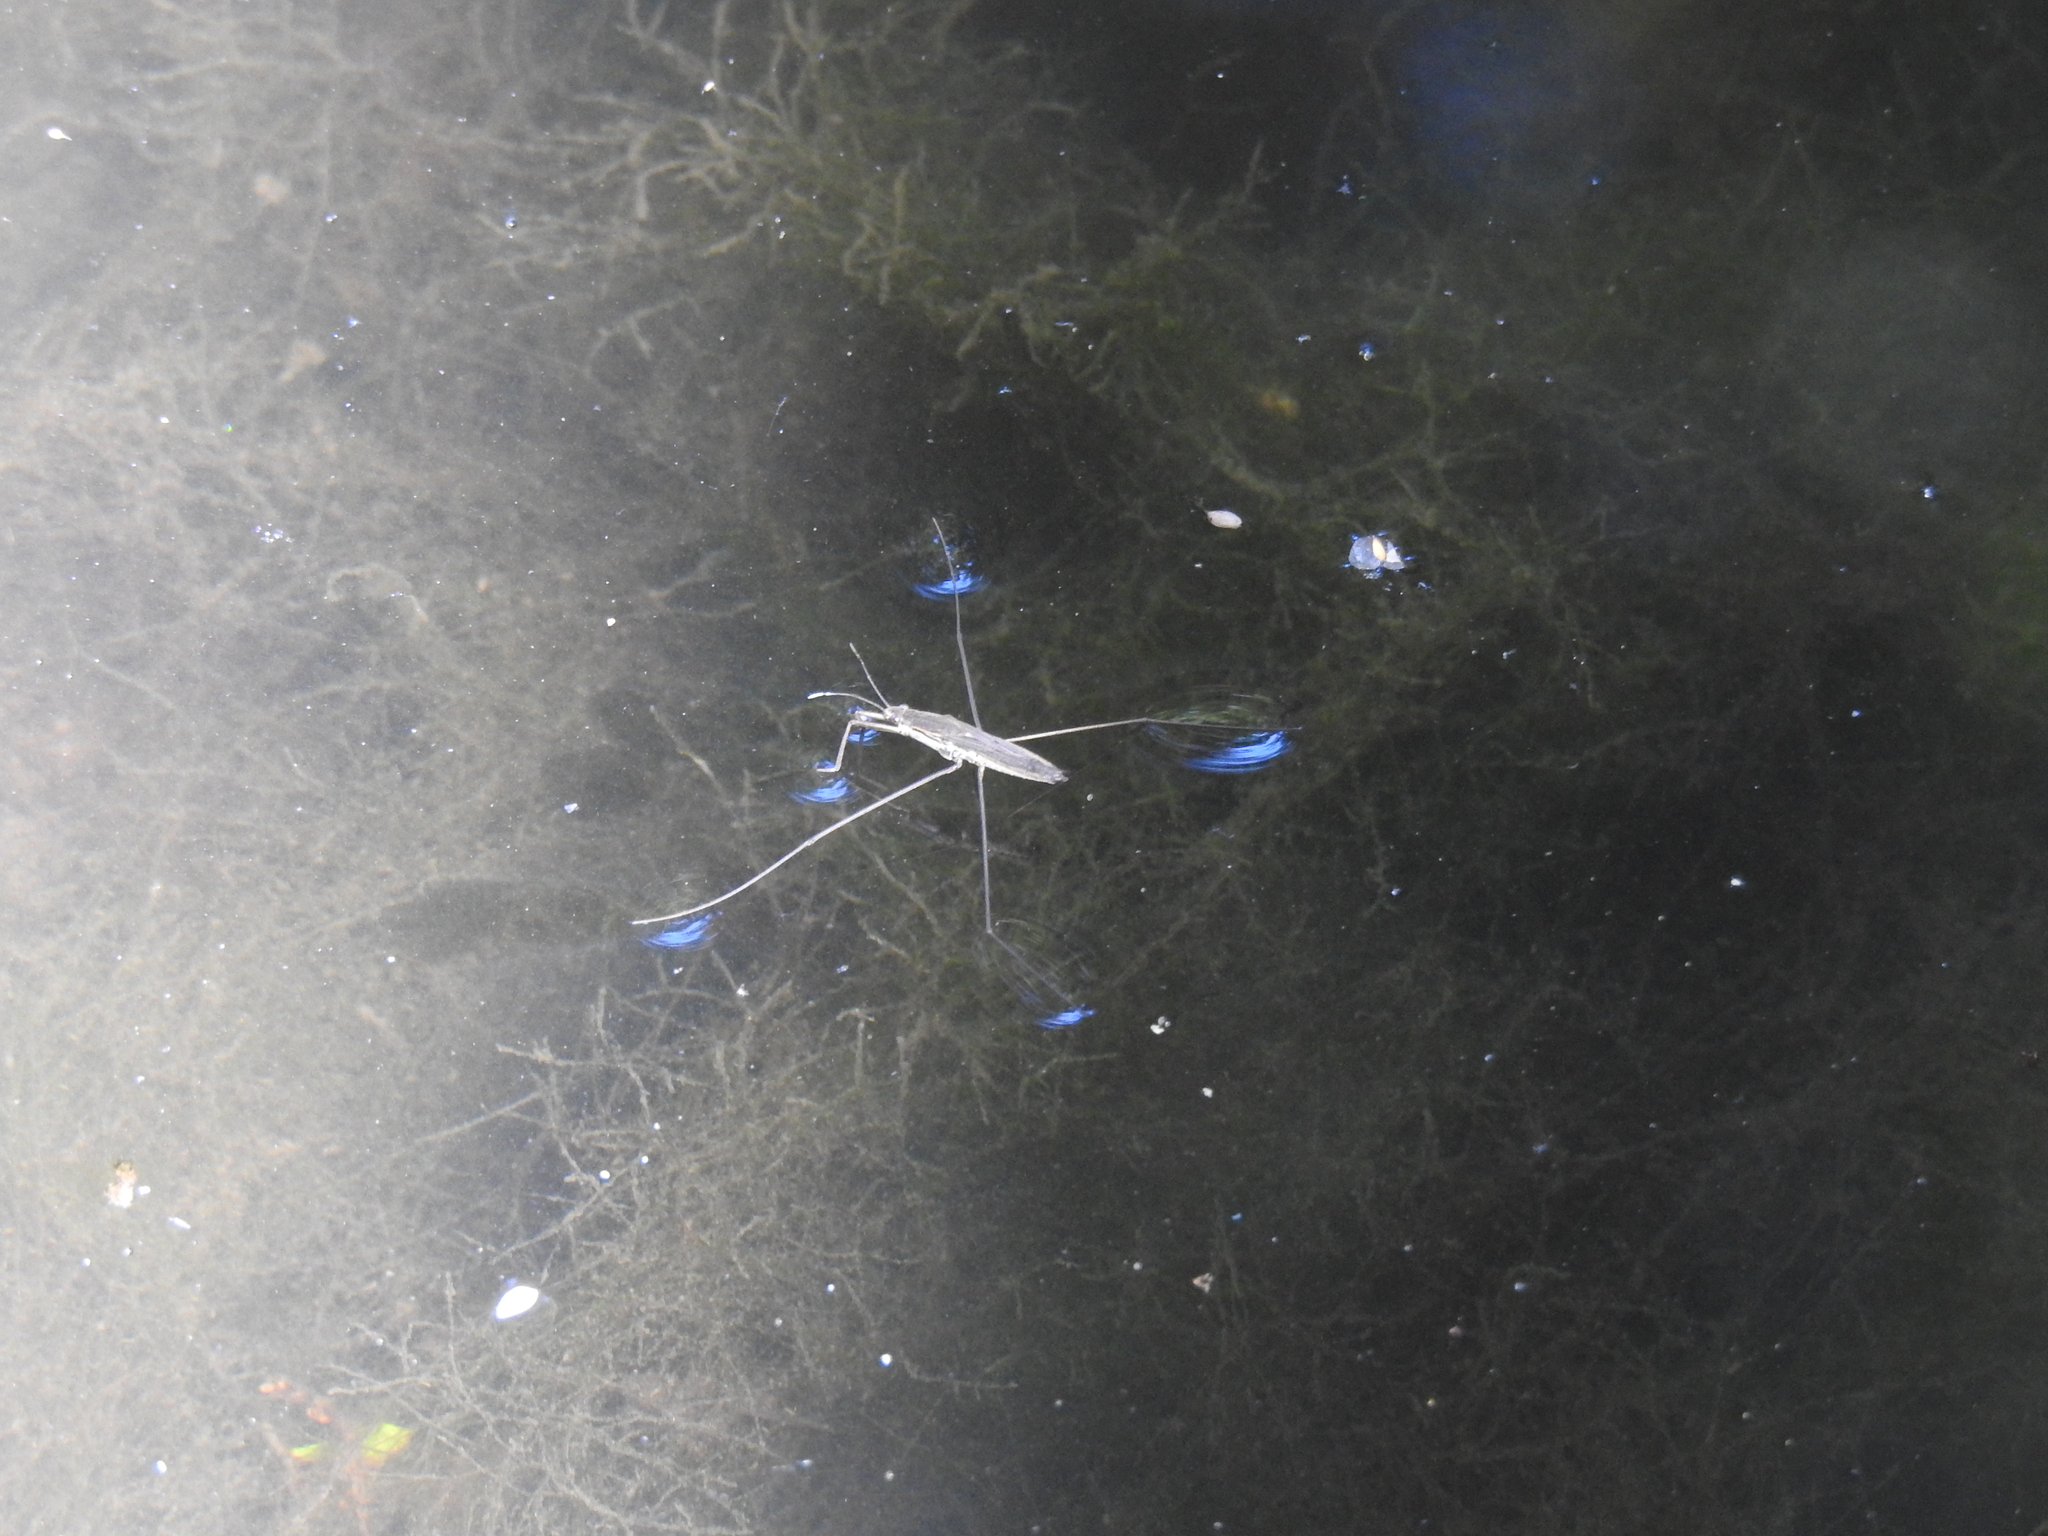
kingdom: Animalia
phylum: Arthropoda
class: Insecta
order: Hemiptera
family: Gerridae
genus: Aquarius
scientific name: Aquarius paludum
